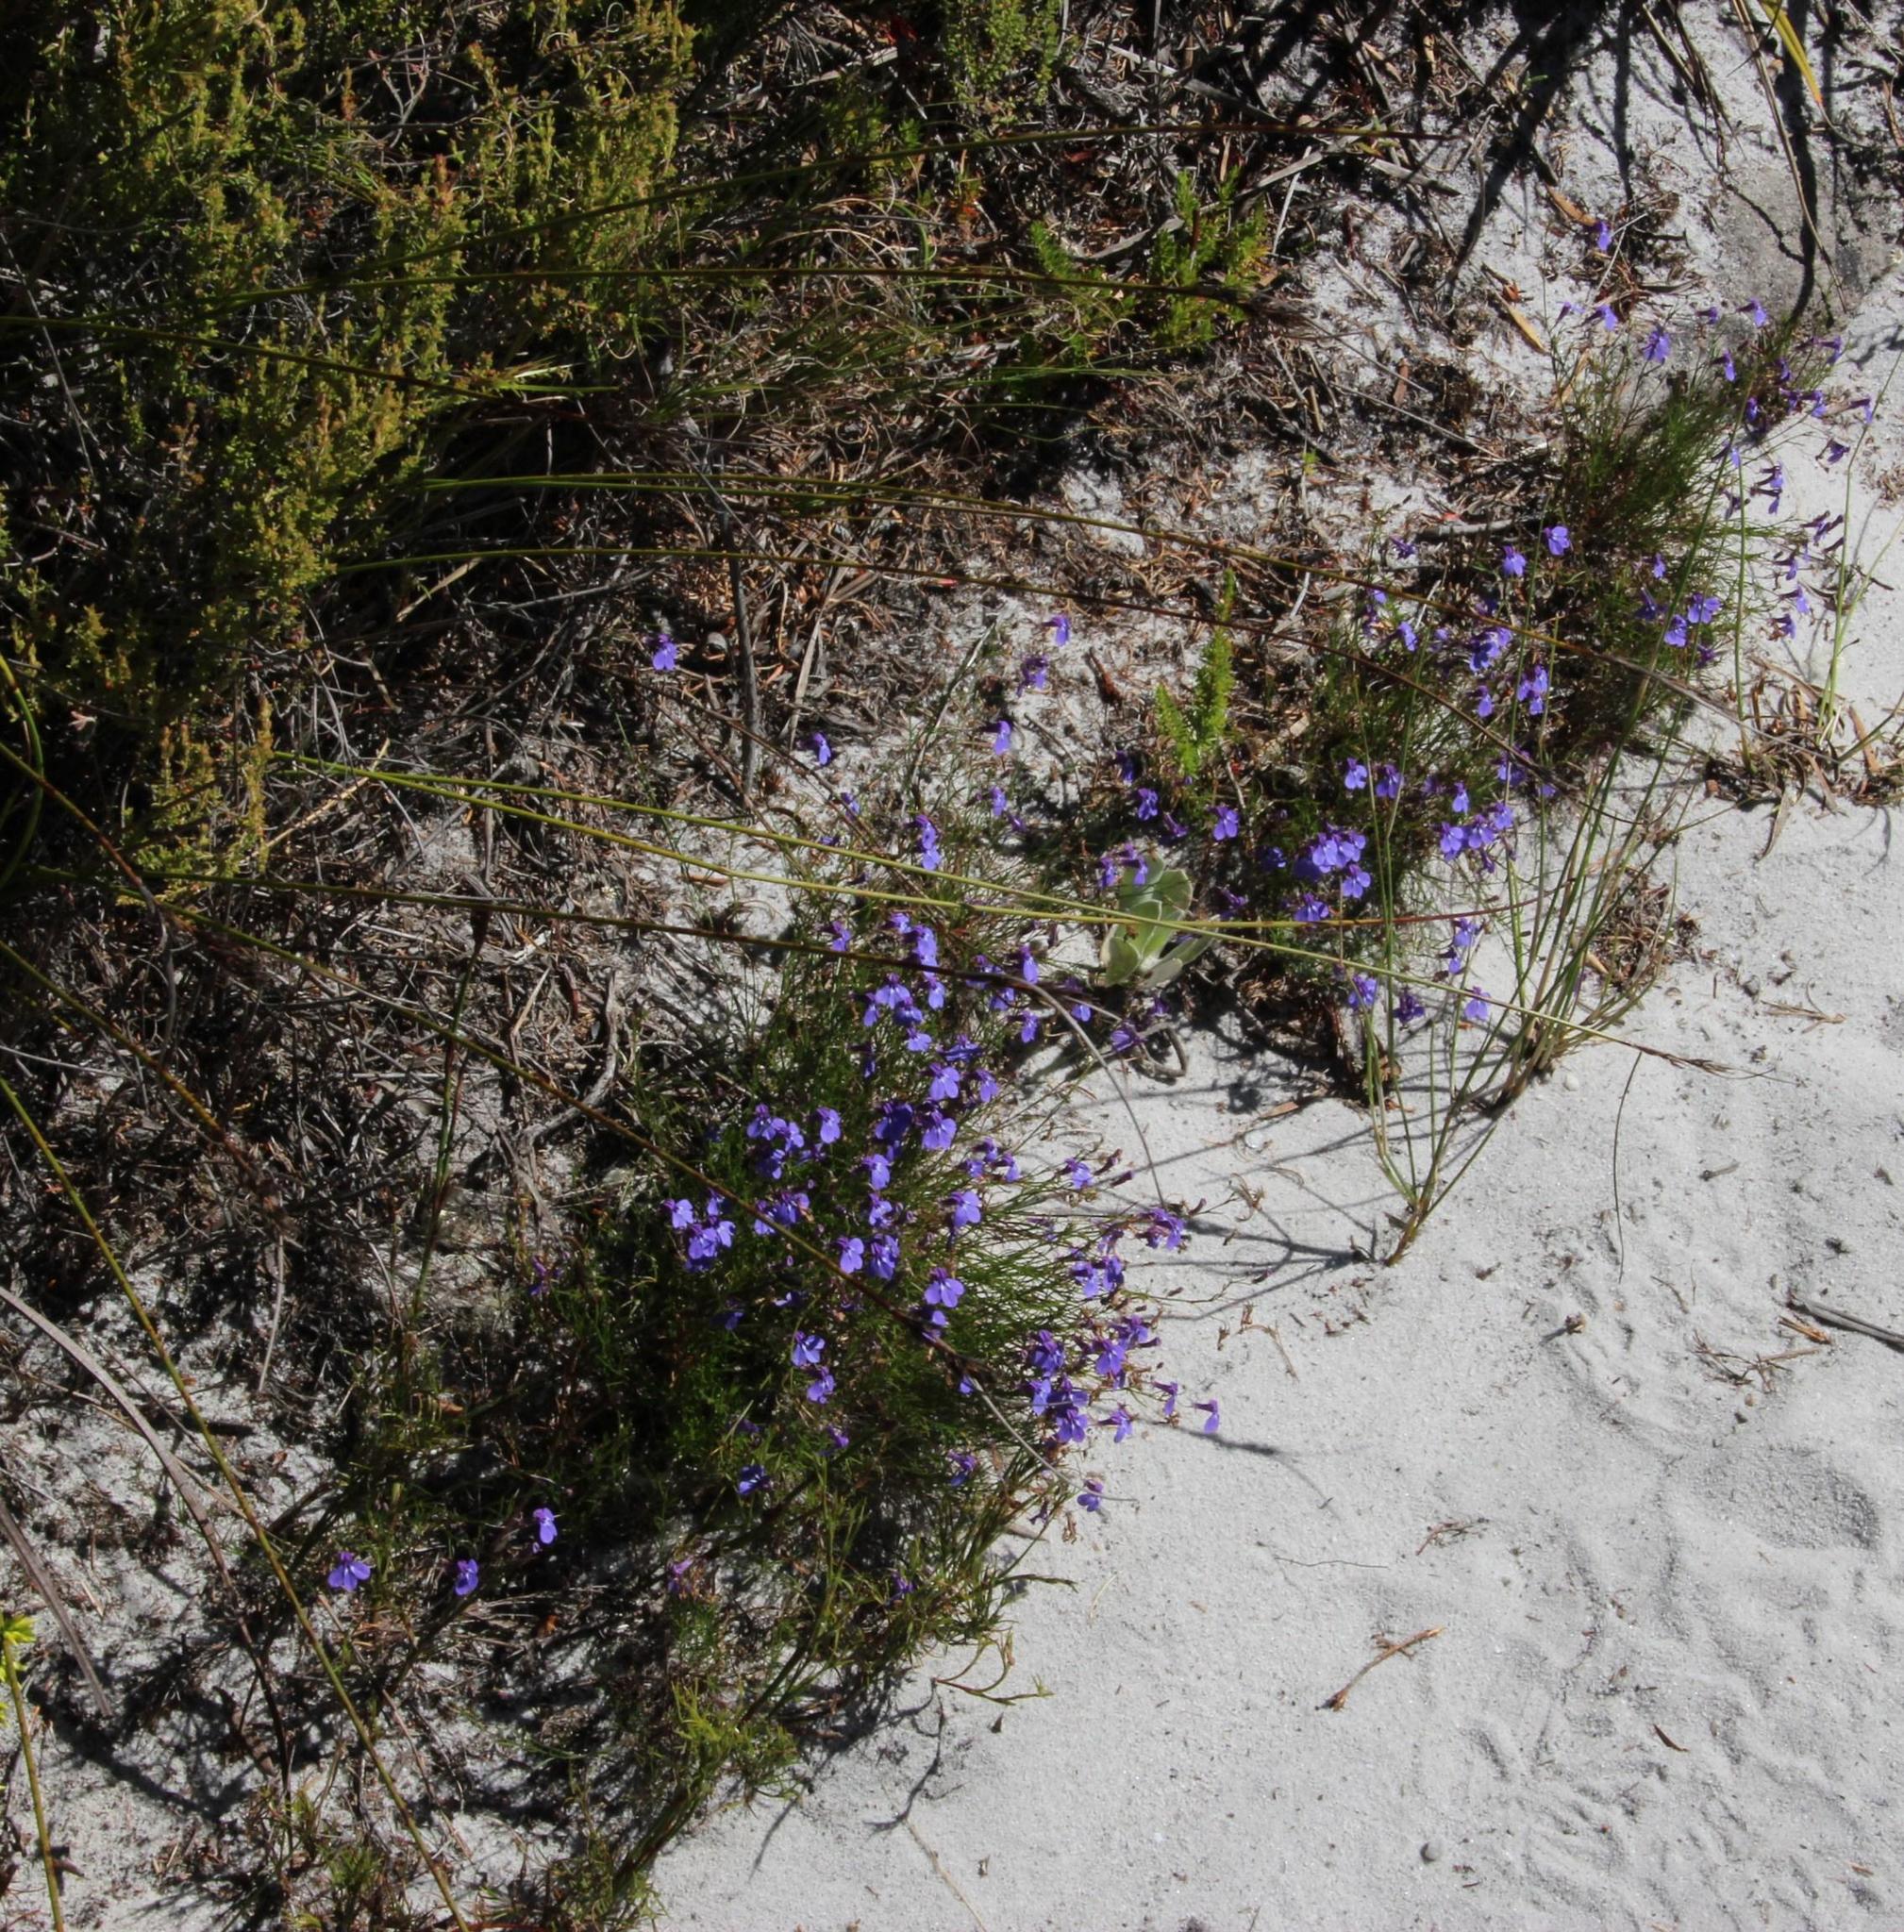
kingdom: Plantae
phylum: Tracheophyta
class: Magnoliopsida
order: Asterales
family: Campanulaceae
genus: Lobelia
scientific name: Lobelia setacea
